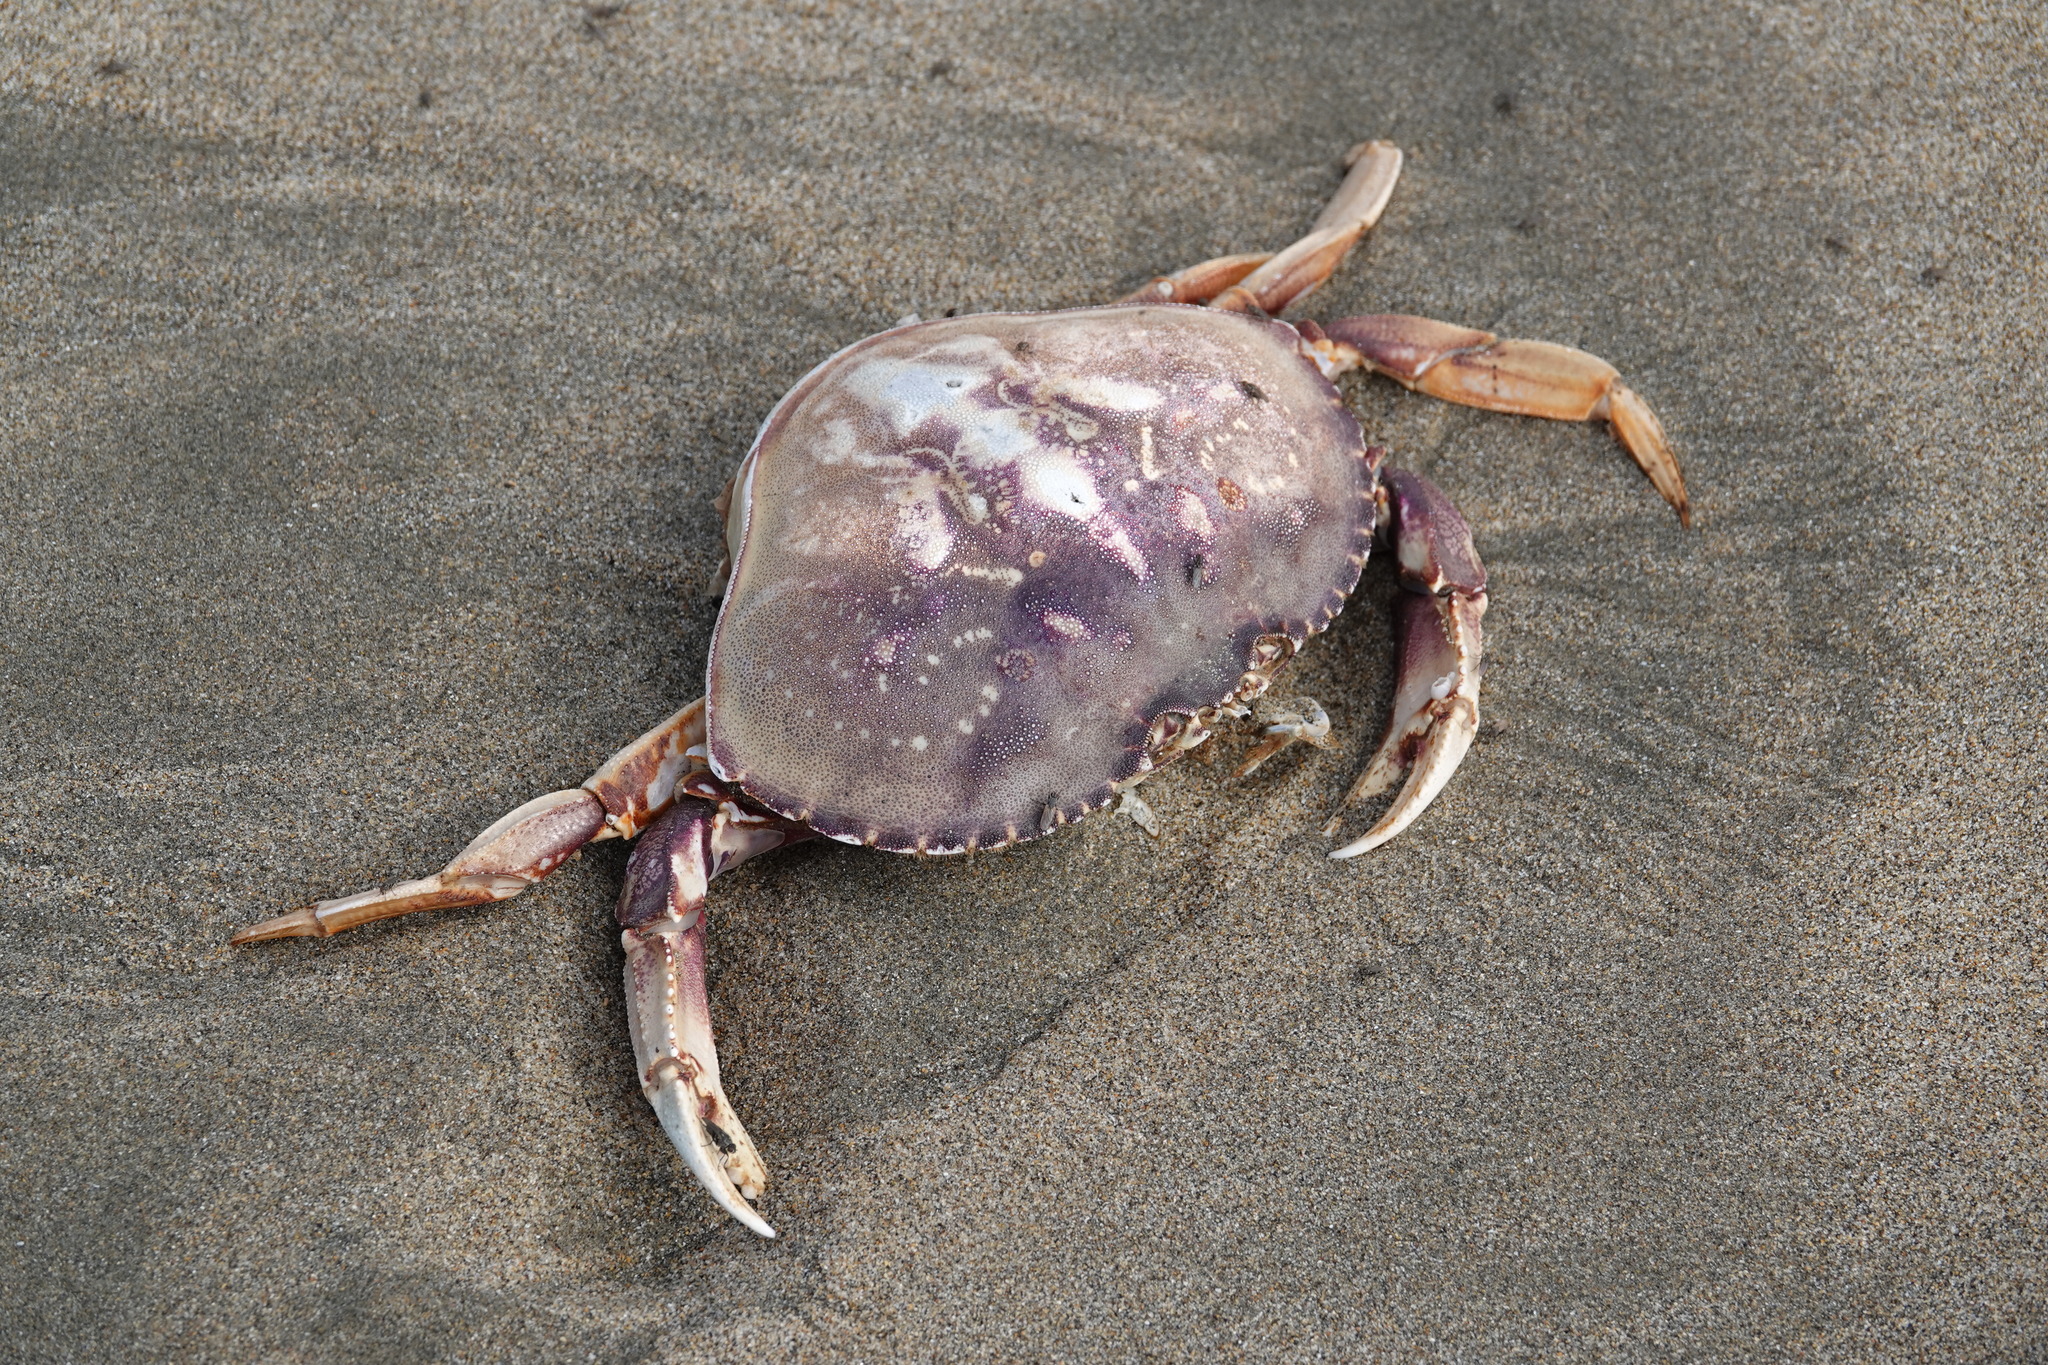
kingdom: Animalia
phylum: Arthropoda
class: Malacostraca
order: Decapoda
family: Cancridae
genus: Metacarcinus
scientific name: Metacarcinus magister
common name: Californian crab
